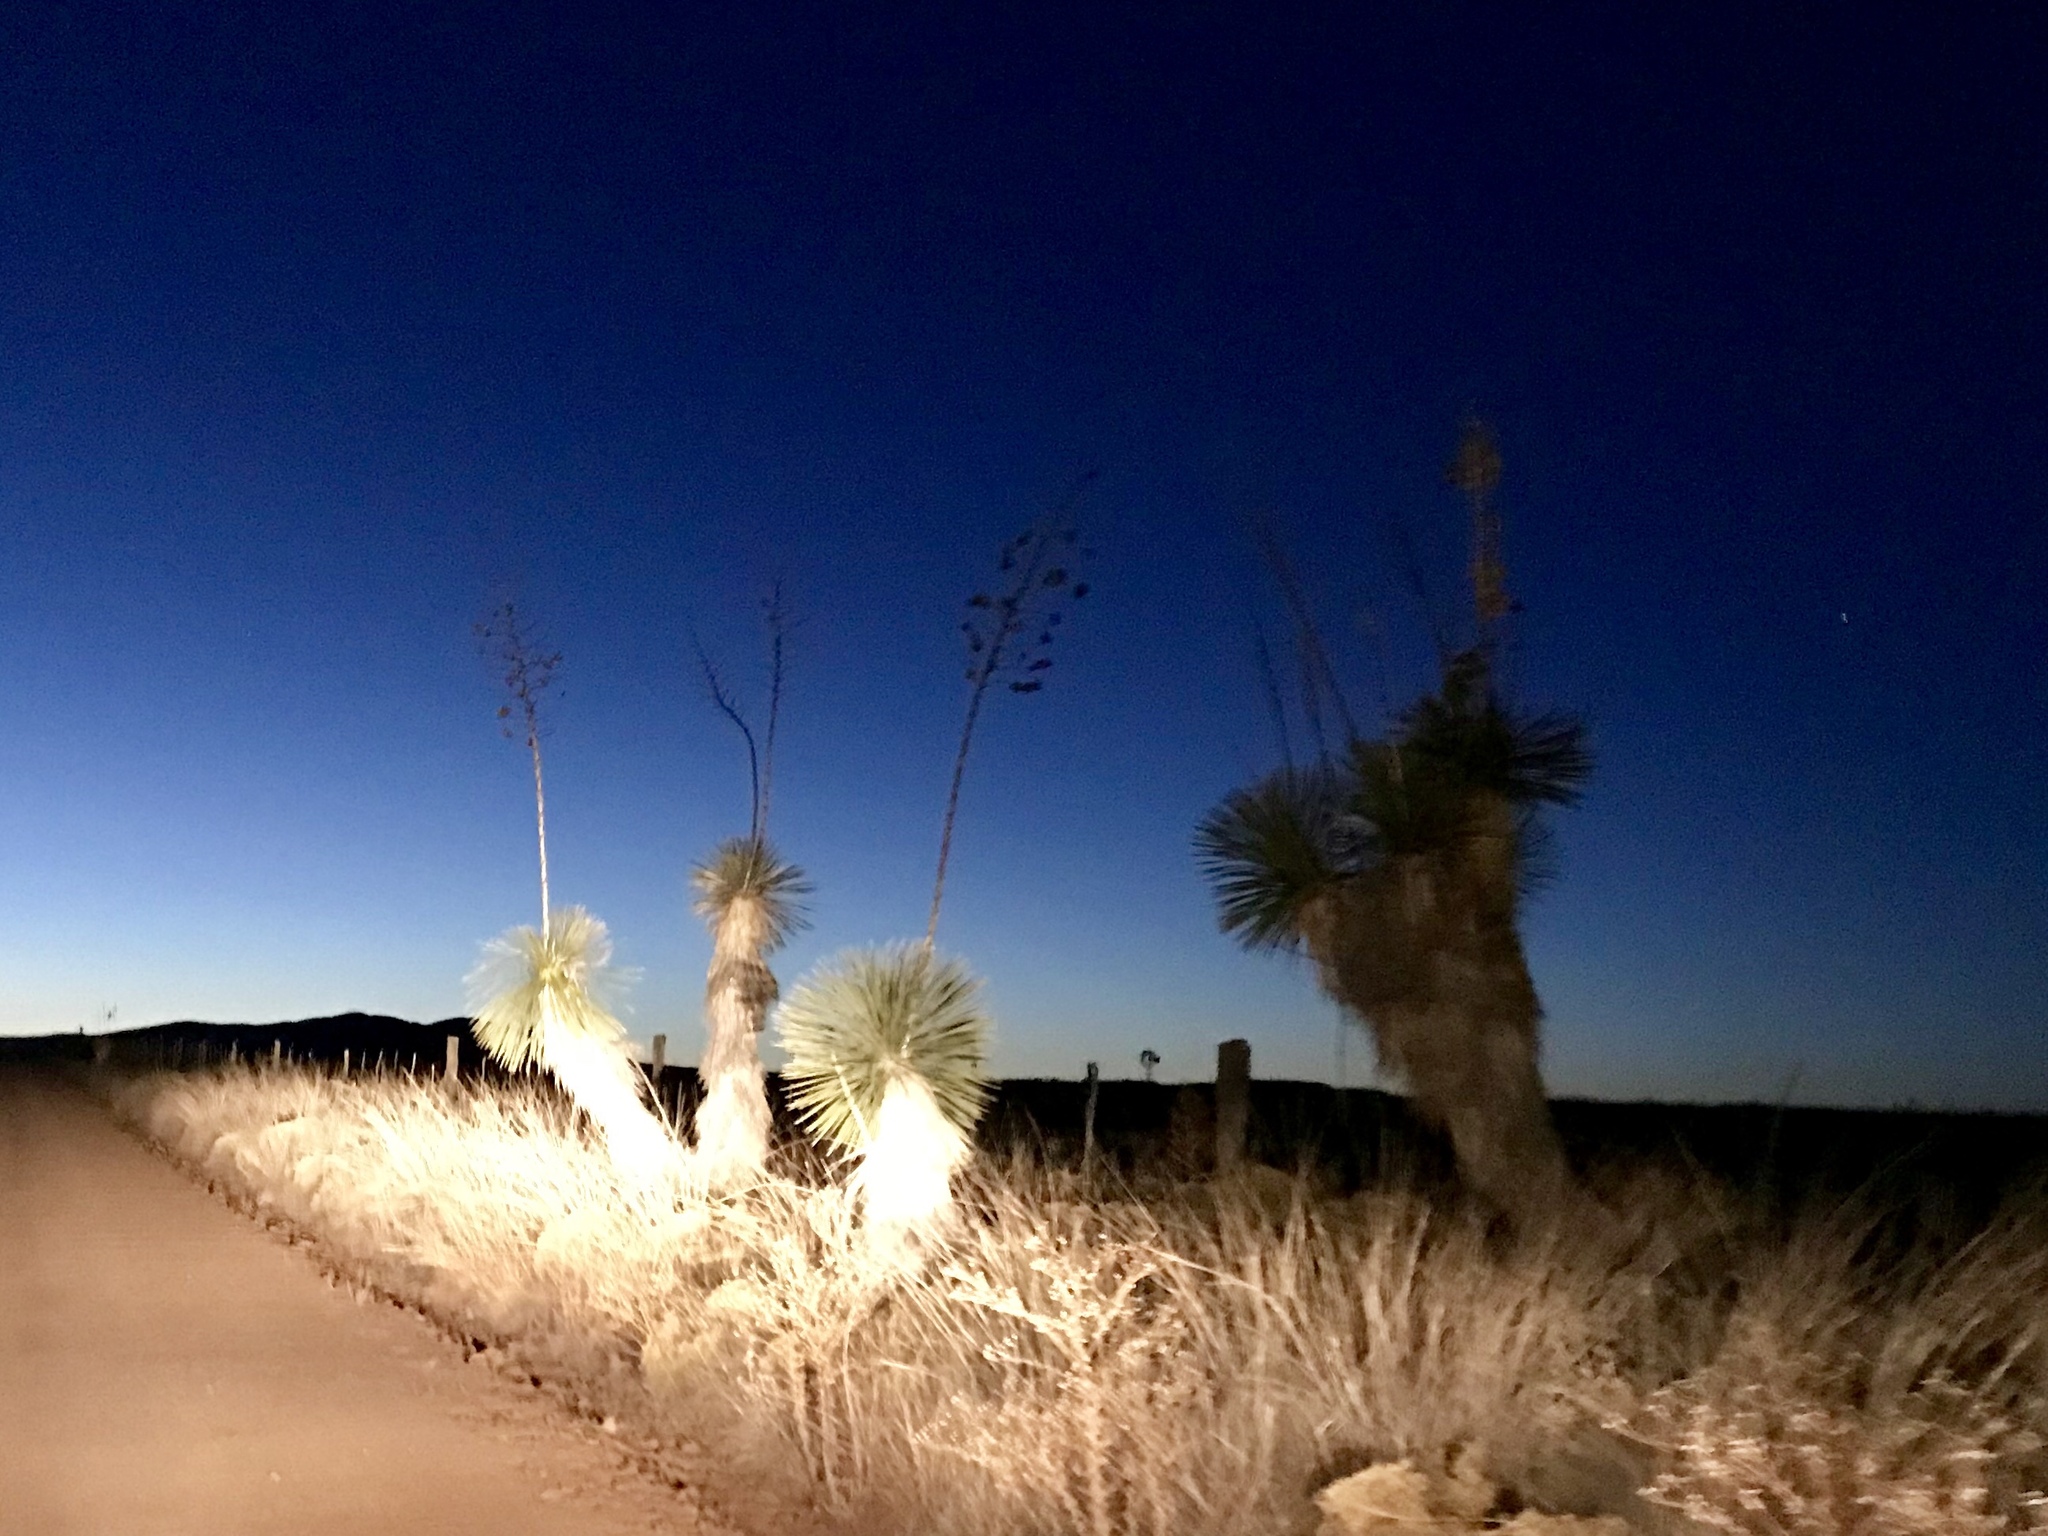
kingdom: Plantae
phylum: Tracheophyta
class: Liliopsida
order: Asparagales
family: Asparagaceae
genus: Yucca
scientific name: Yucca elata
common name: Palmella
